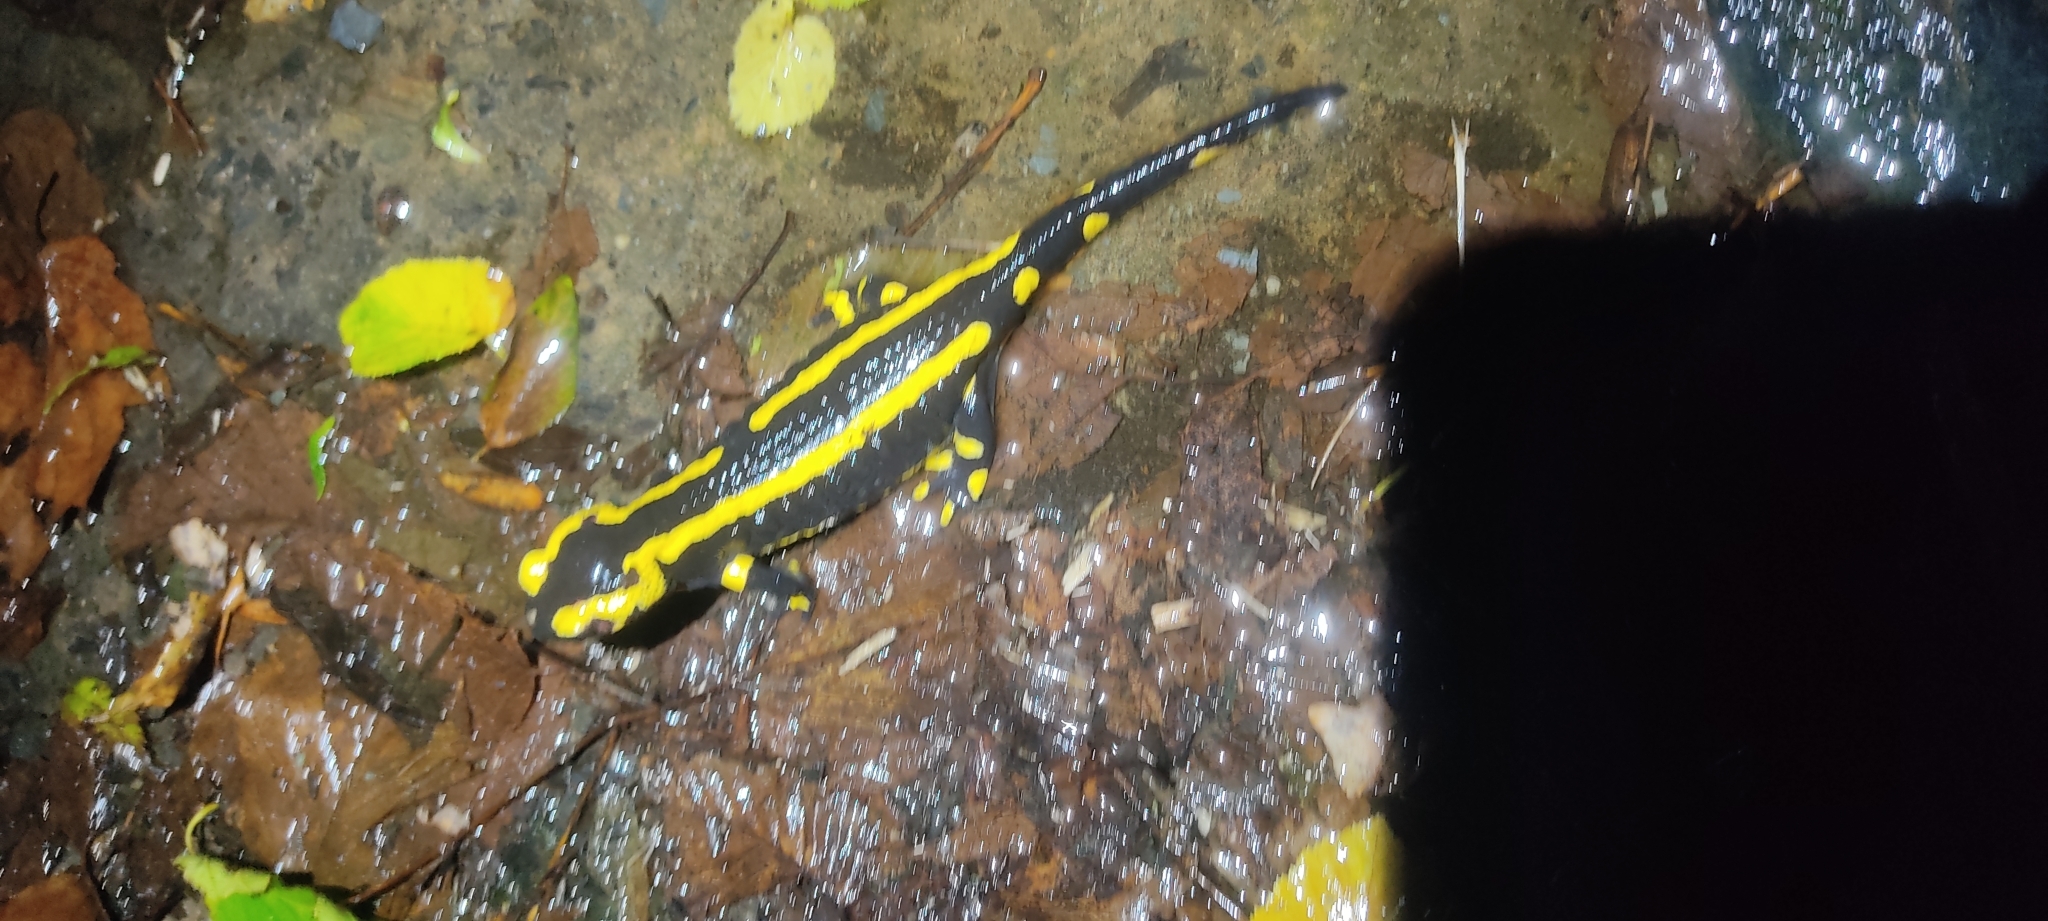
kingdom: Animalia
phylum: Chordata
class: Amphibia
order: Caudata
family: Salamandridae
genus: Salamandra
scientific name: Salamandra salamandra
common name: Fire salamander
